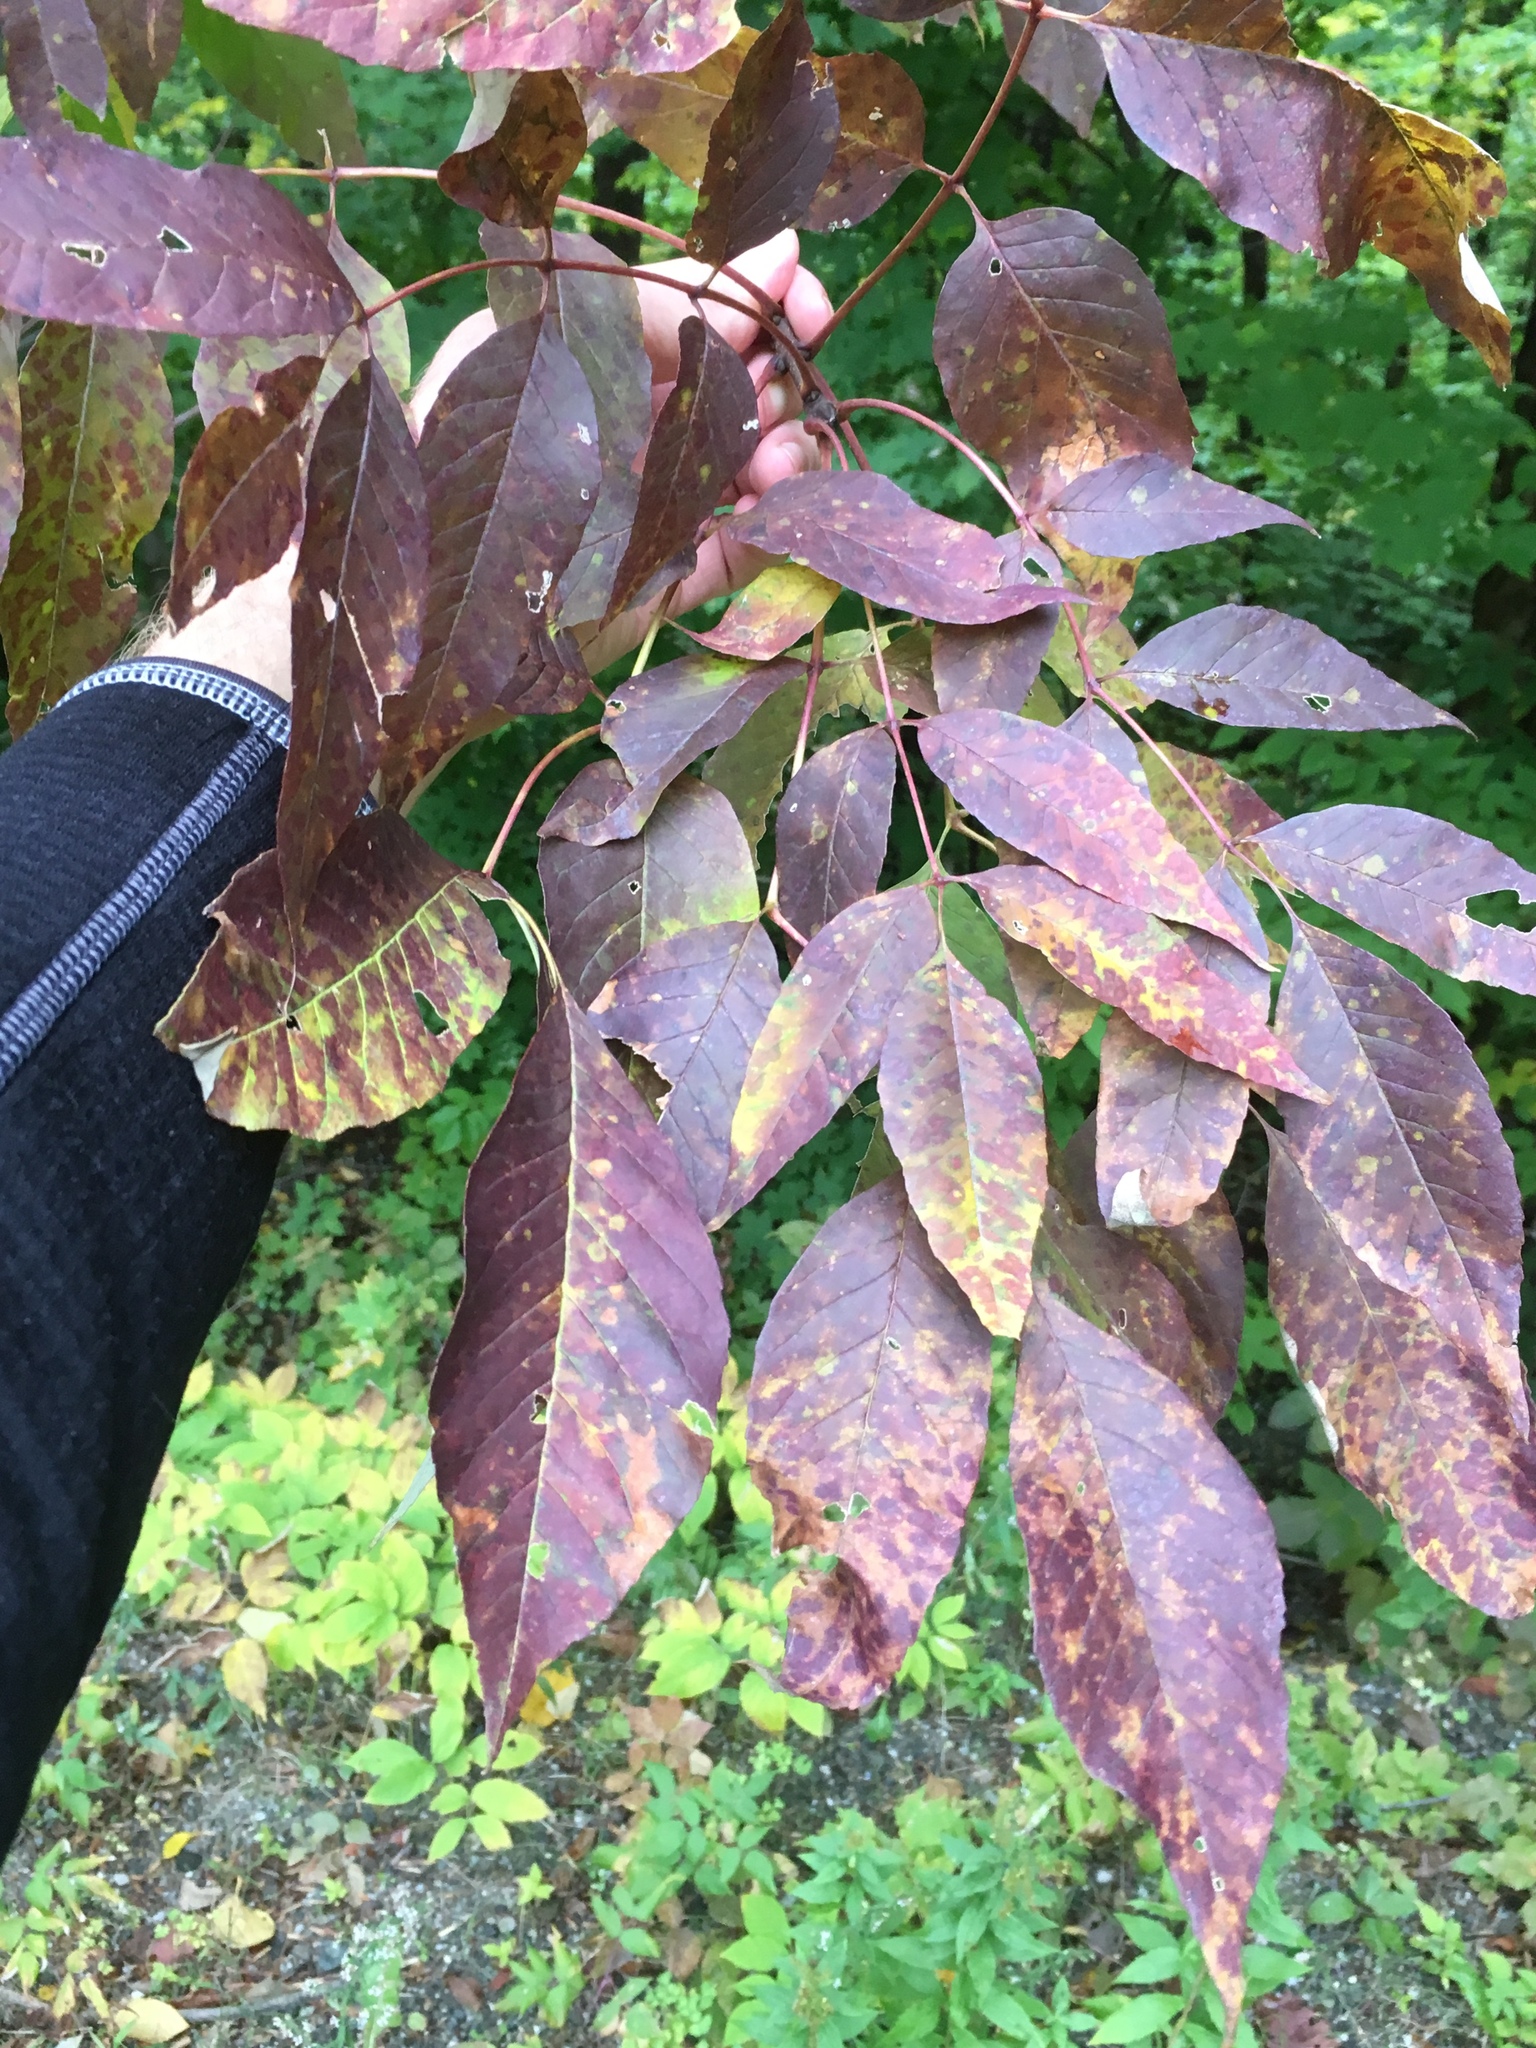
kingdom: Plantae
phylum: Tracheophyta
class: Magnoliopsida
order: Lamiales
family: Oleaceae
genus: Fraxinus
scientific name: Fraxinus americana
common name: White ash
